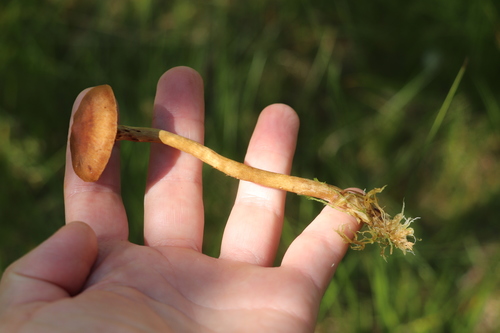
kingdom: Fungi
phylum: Basidiomycota
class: Agaricomycetes
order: Agaricales
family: Cortinariaceae
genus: Cortinarius
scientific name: Cortinarius tubarius
